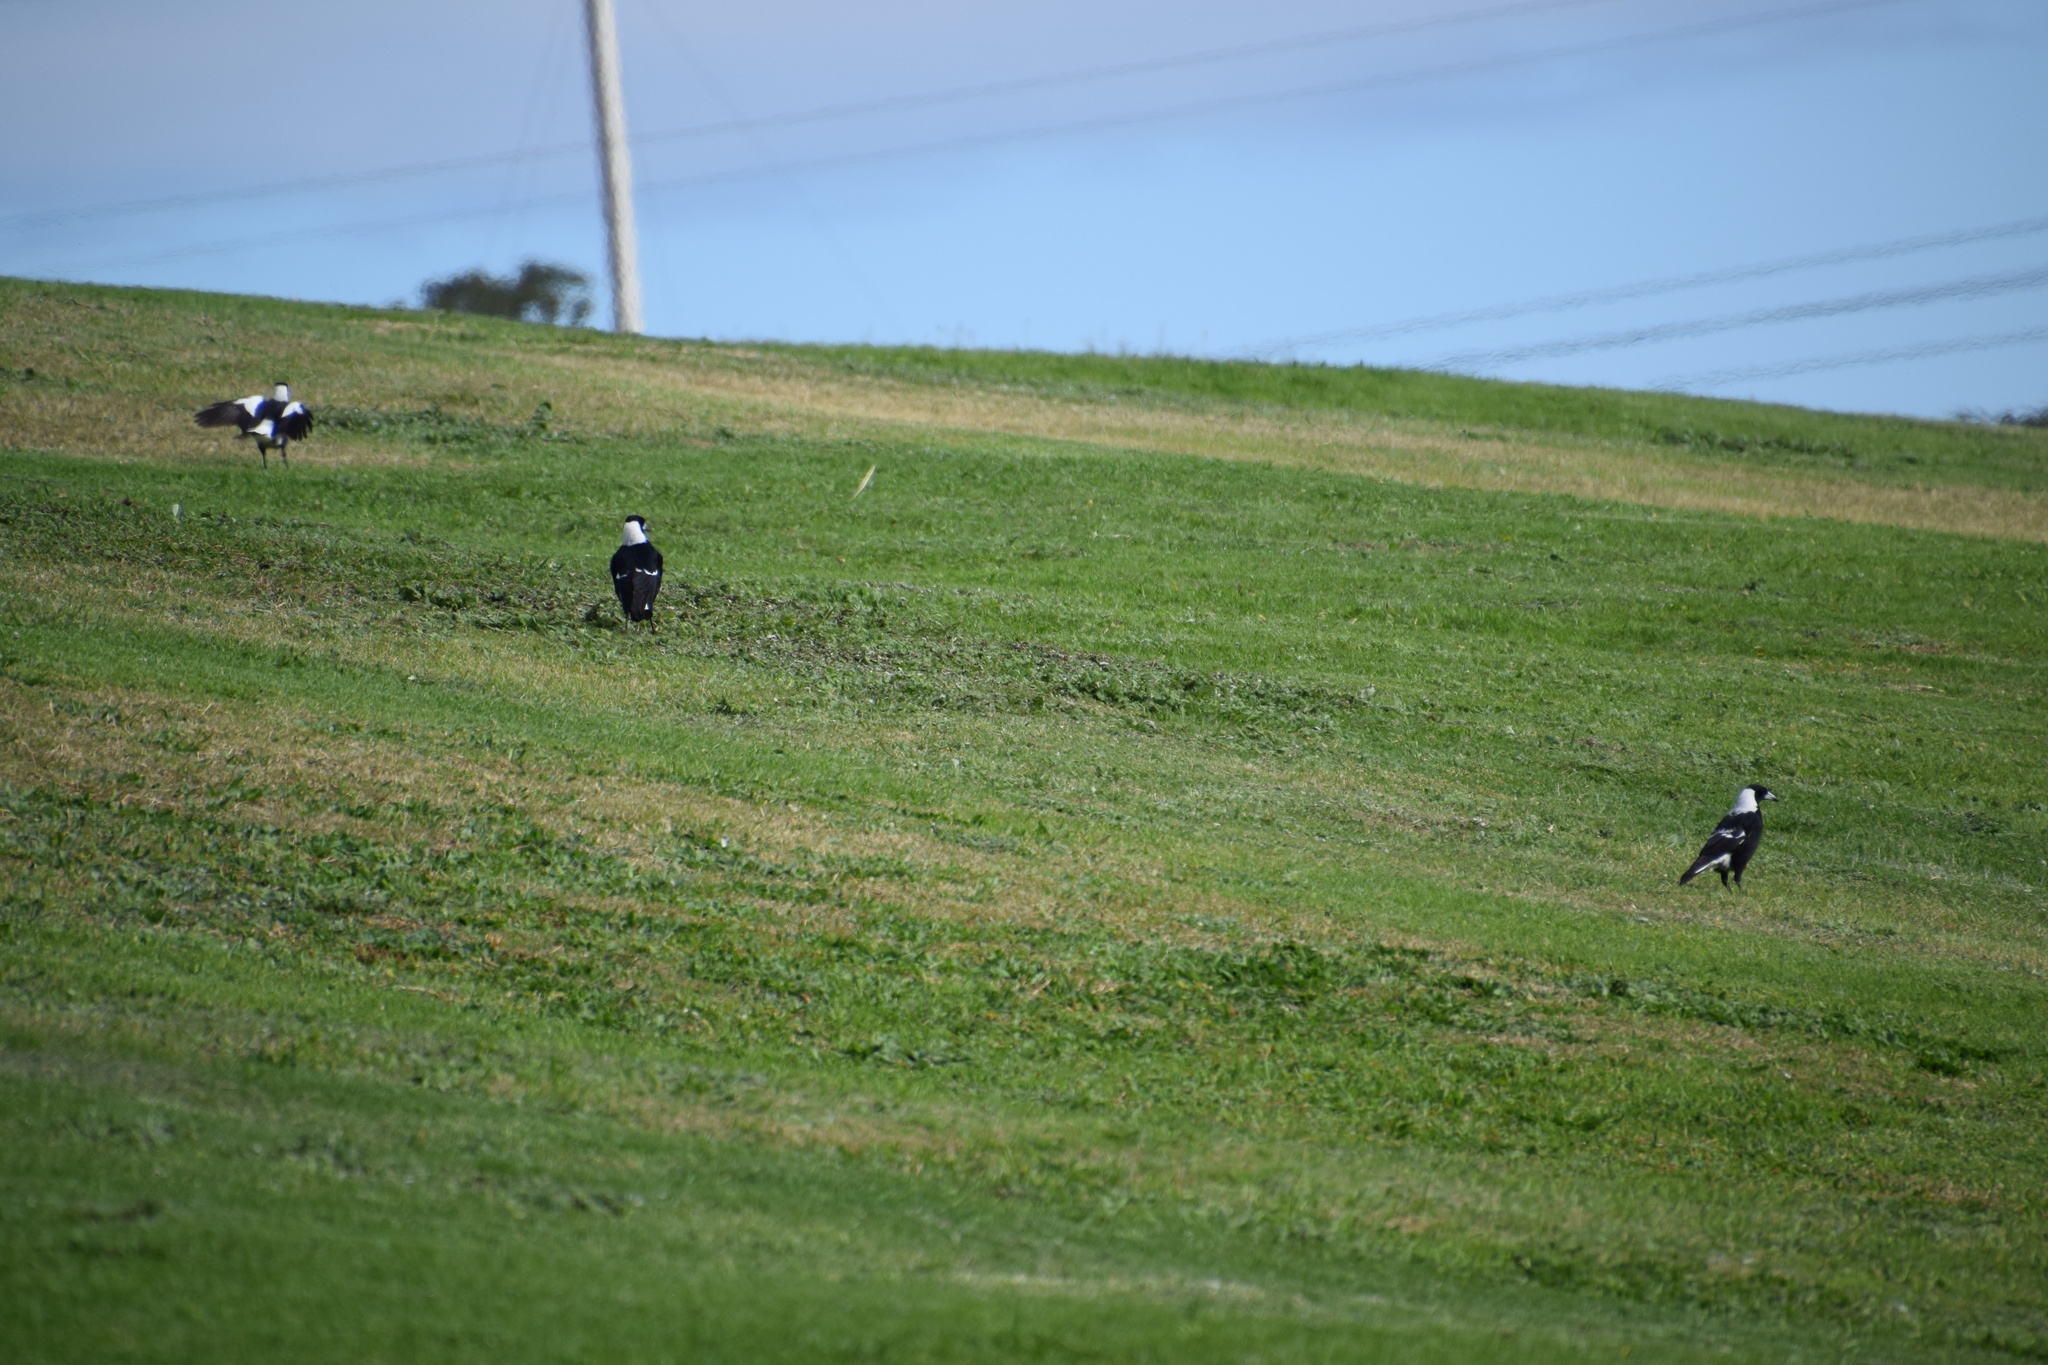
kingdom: Animalia
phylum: Chordata
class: Aves
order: Passeriformes
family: Cracticidae
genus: Gymnorhina
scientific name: Gymnorhina tibicen
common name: Australian magpie
